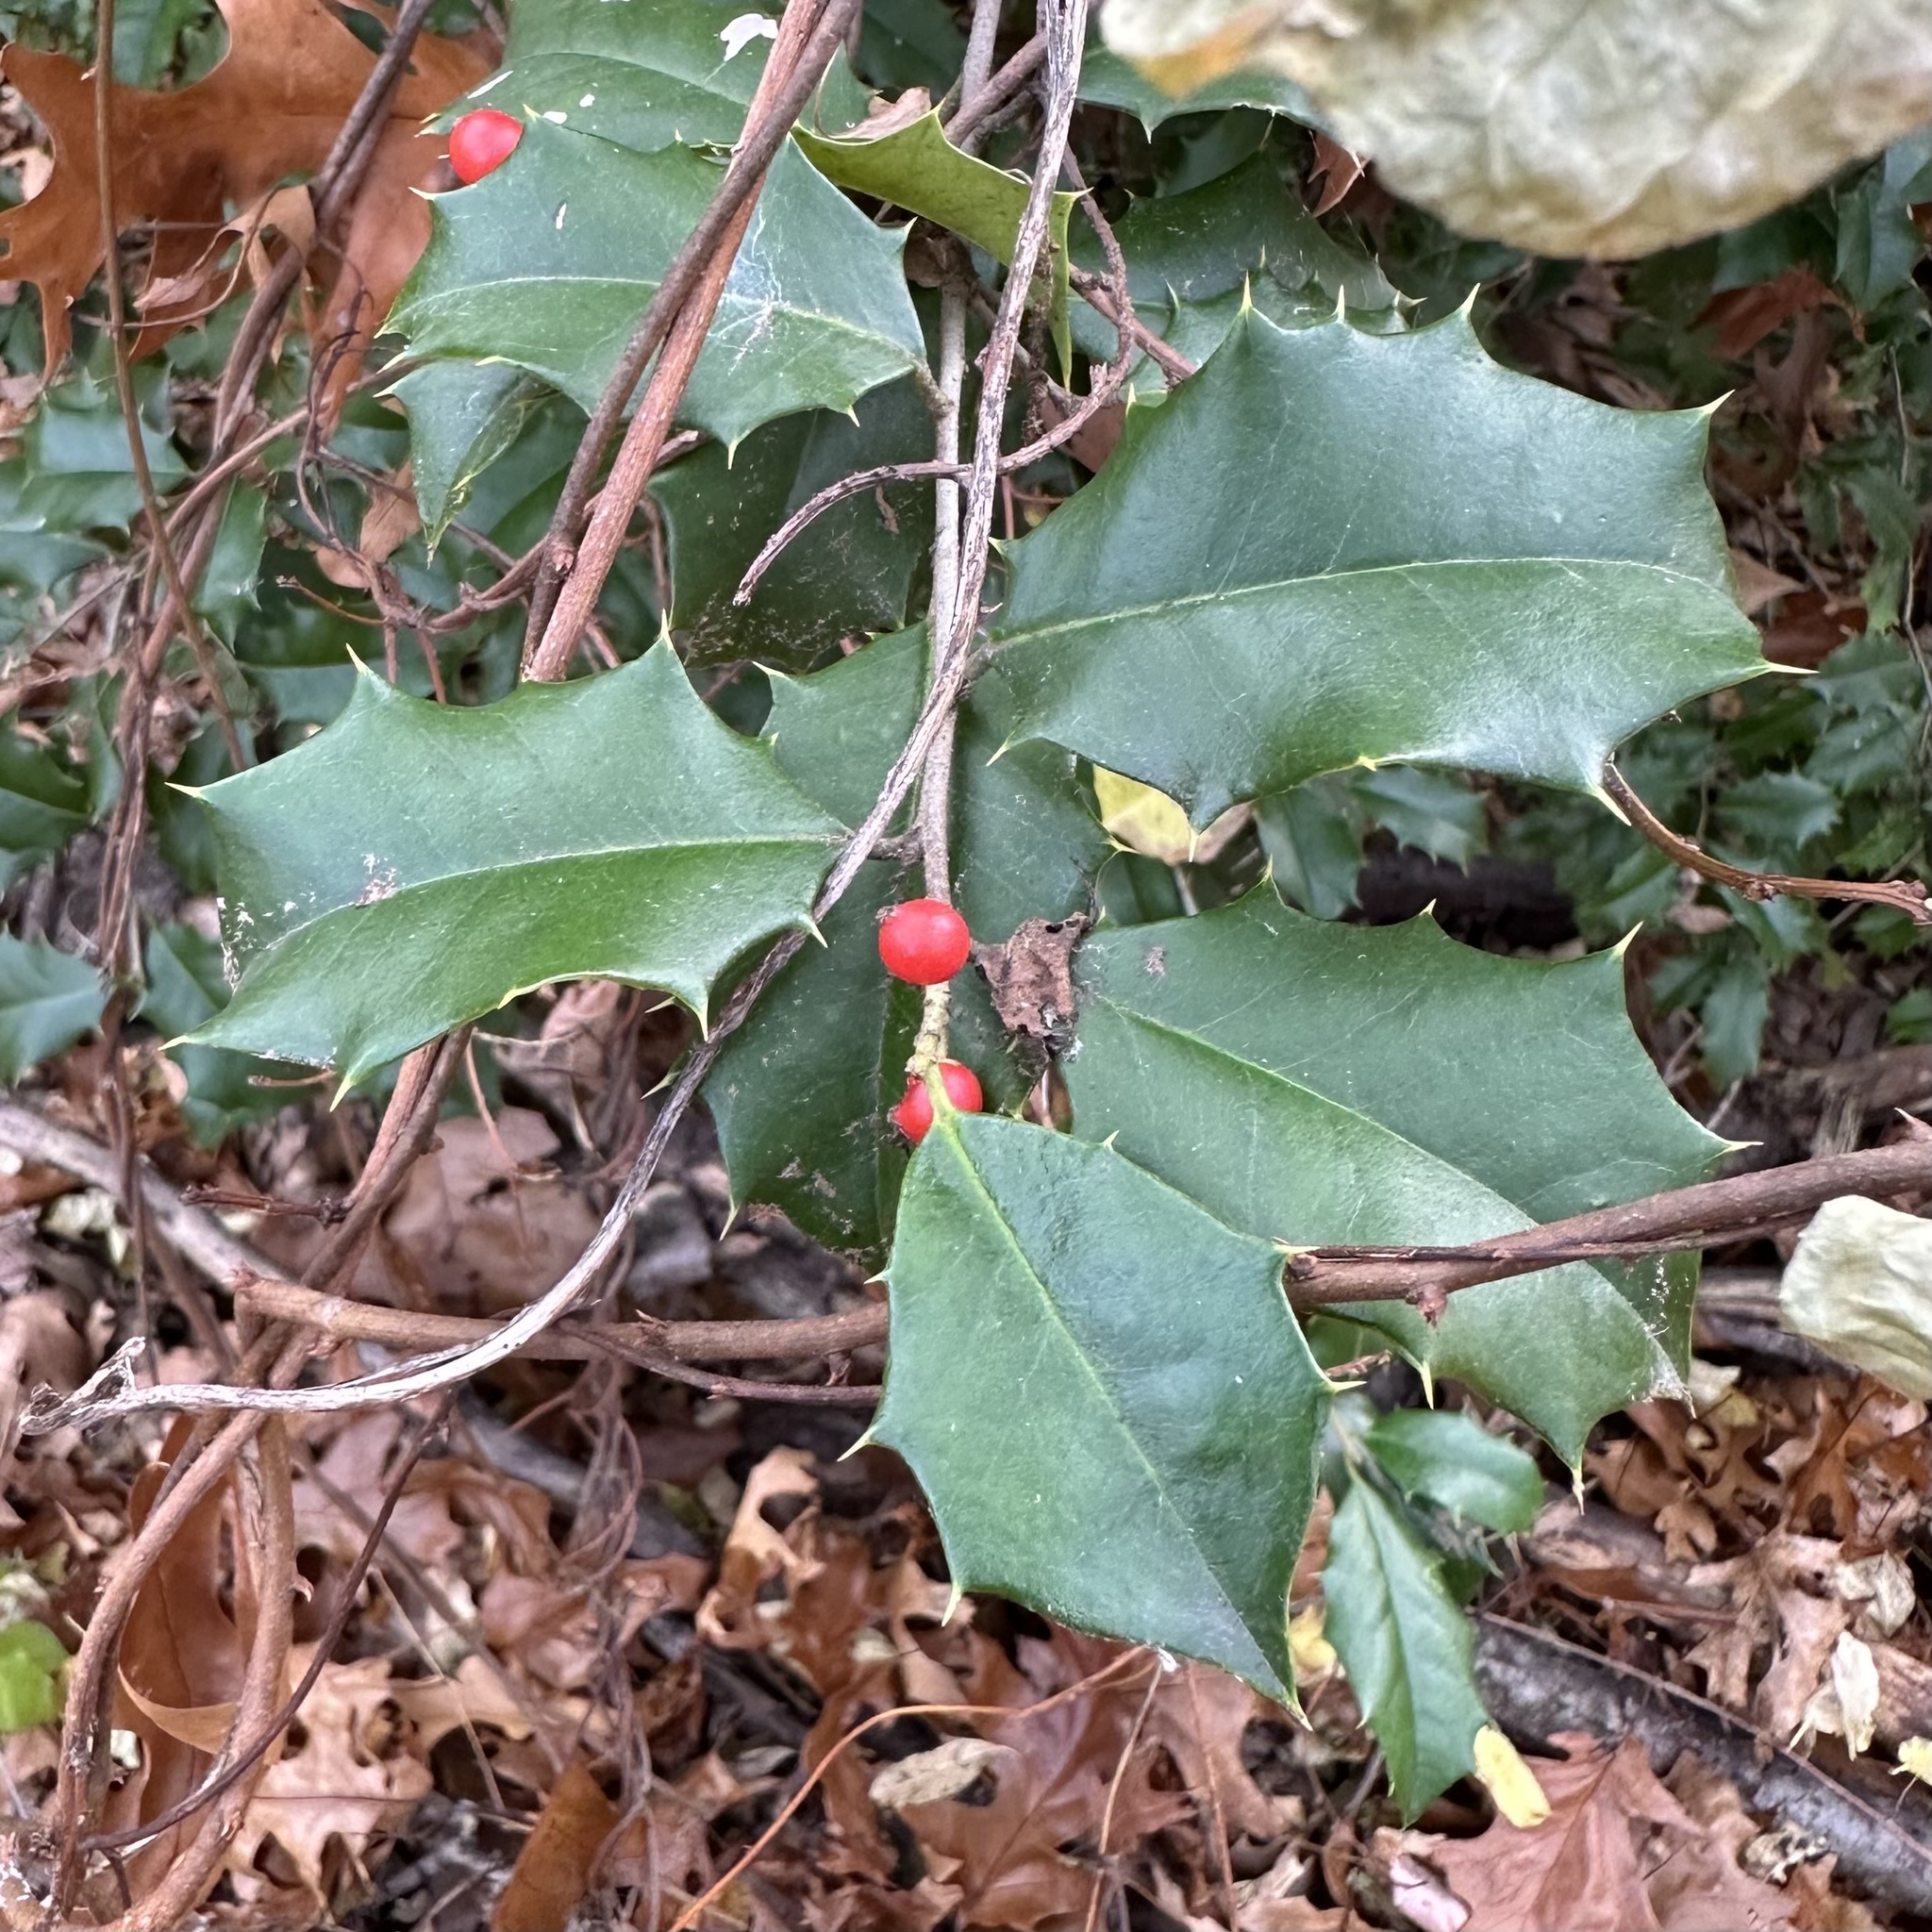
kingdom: Plantae
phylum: Tracheophyta
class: Magnoliopsida
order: Aquifoliales
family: Aquifoliaceae
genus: Ilex
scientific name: Ilex opaca
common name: American holly
